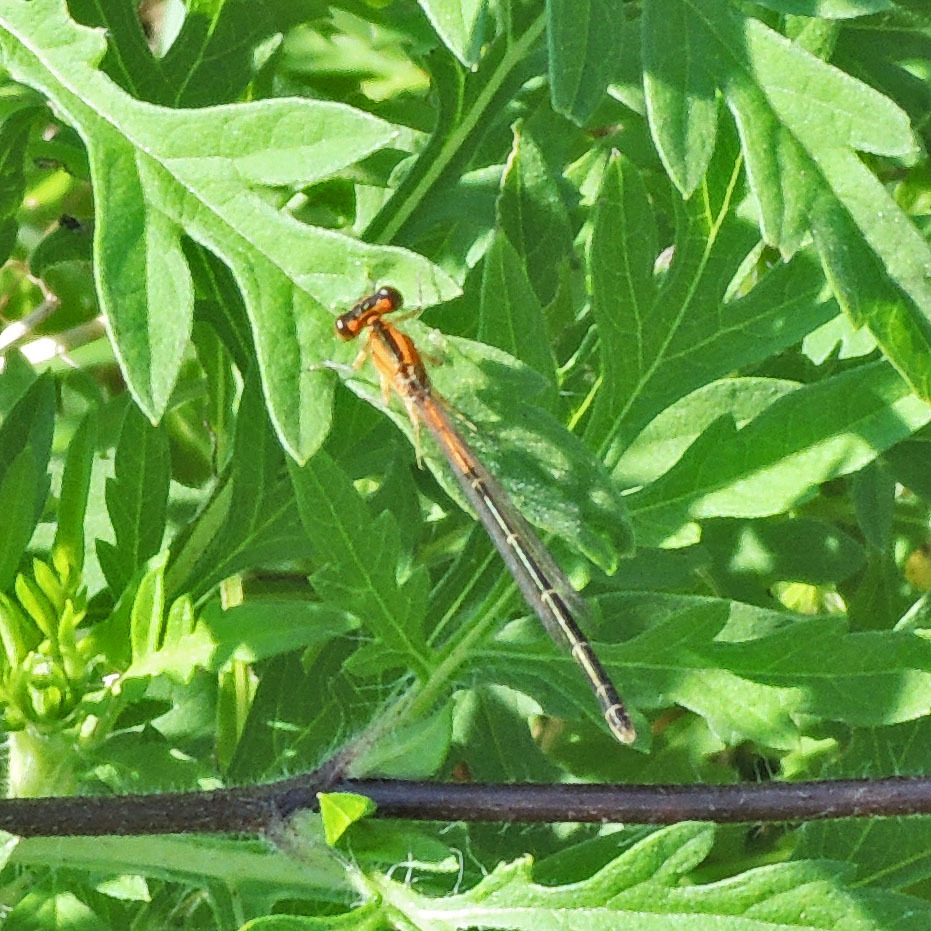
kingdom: Animalia
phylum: Arthropoda
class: Insecta
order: Odonata
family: Coenagrionidae
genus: Ischnura
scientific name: Ischnura verticalis
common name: Eastern forktail
